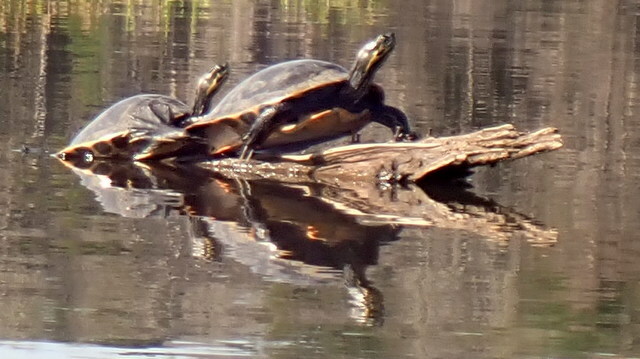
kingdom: Animalia
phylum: Chordata
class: Testudines
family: Emydidae
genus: Pseudemys
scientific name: Pseudemys concinna
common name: Eastern river cooter
